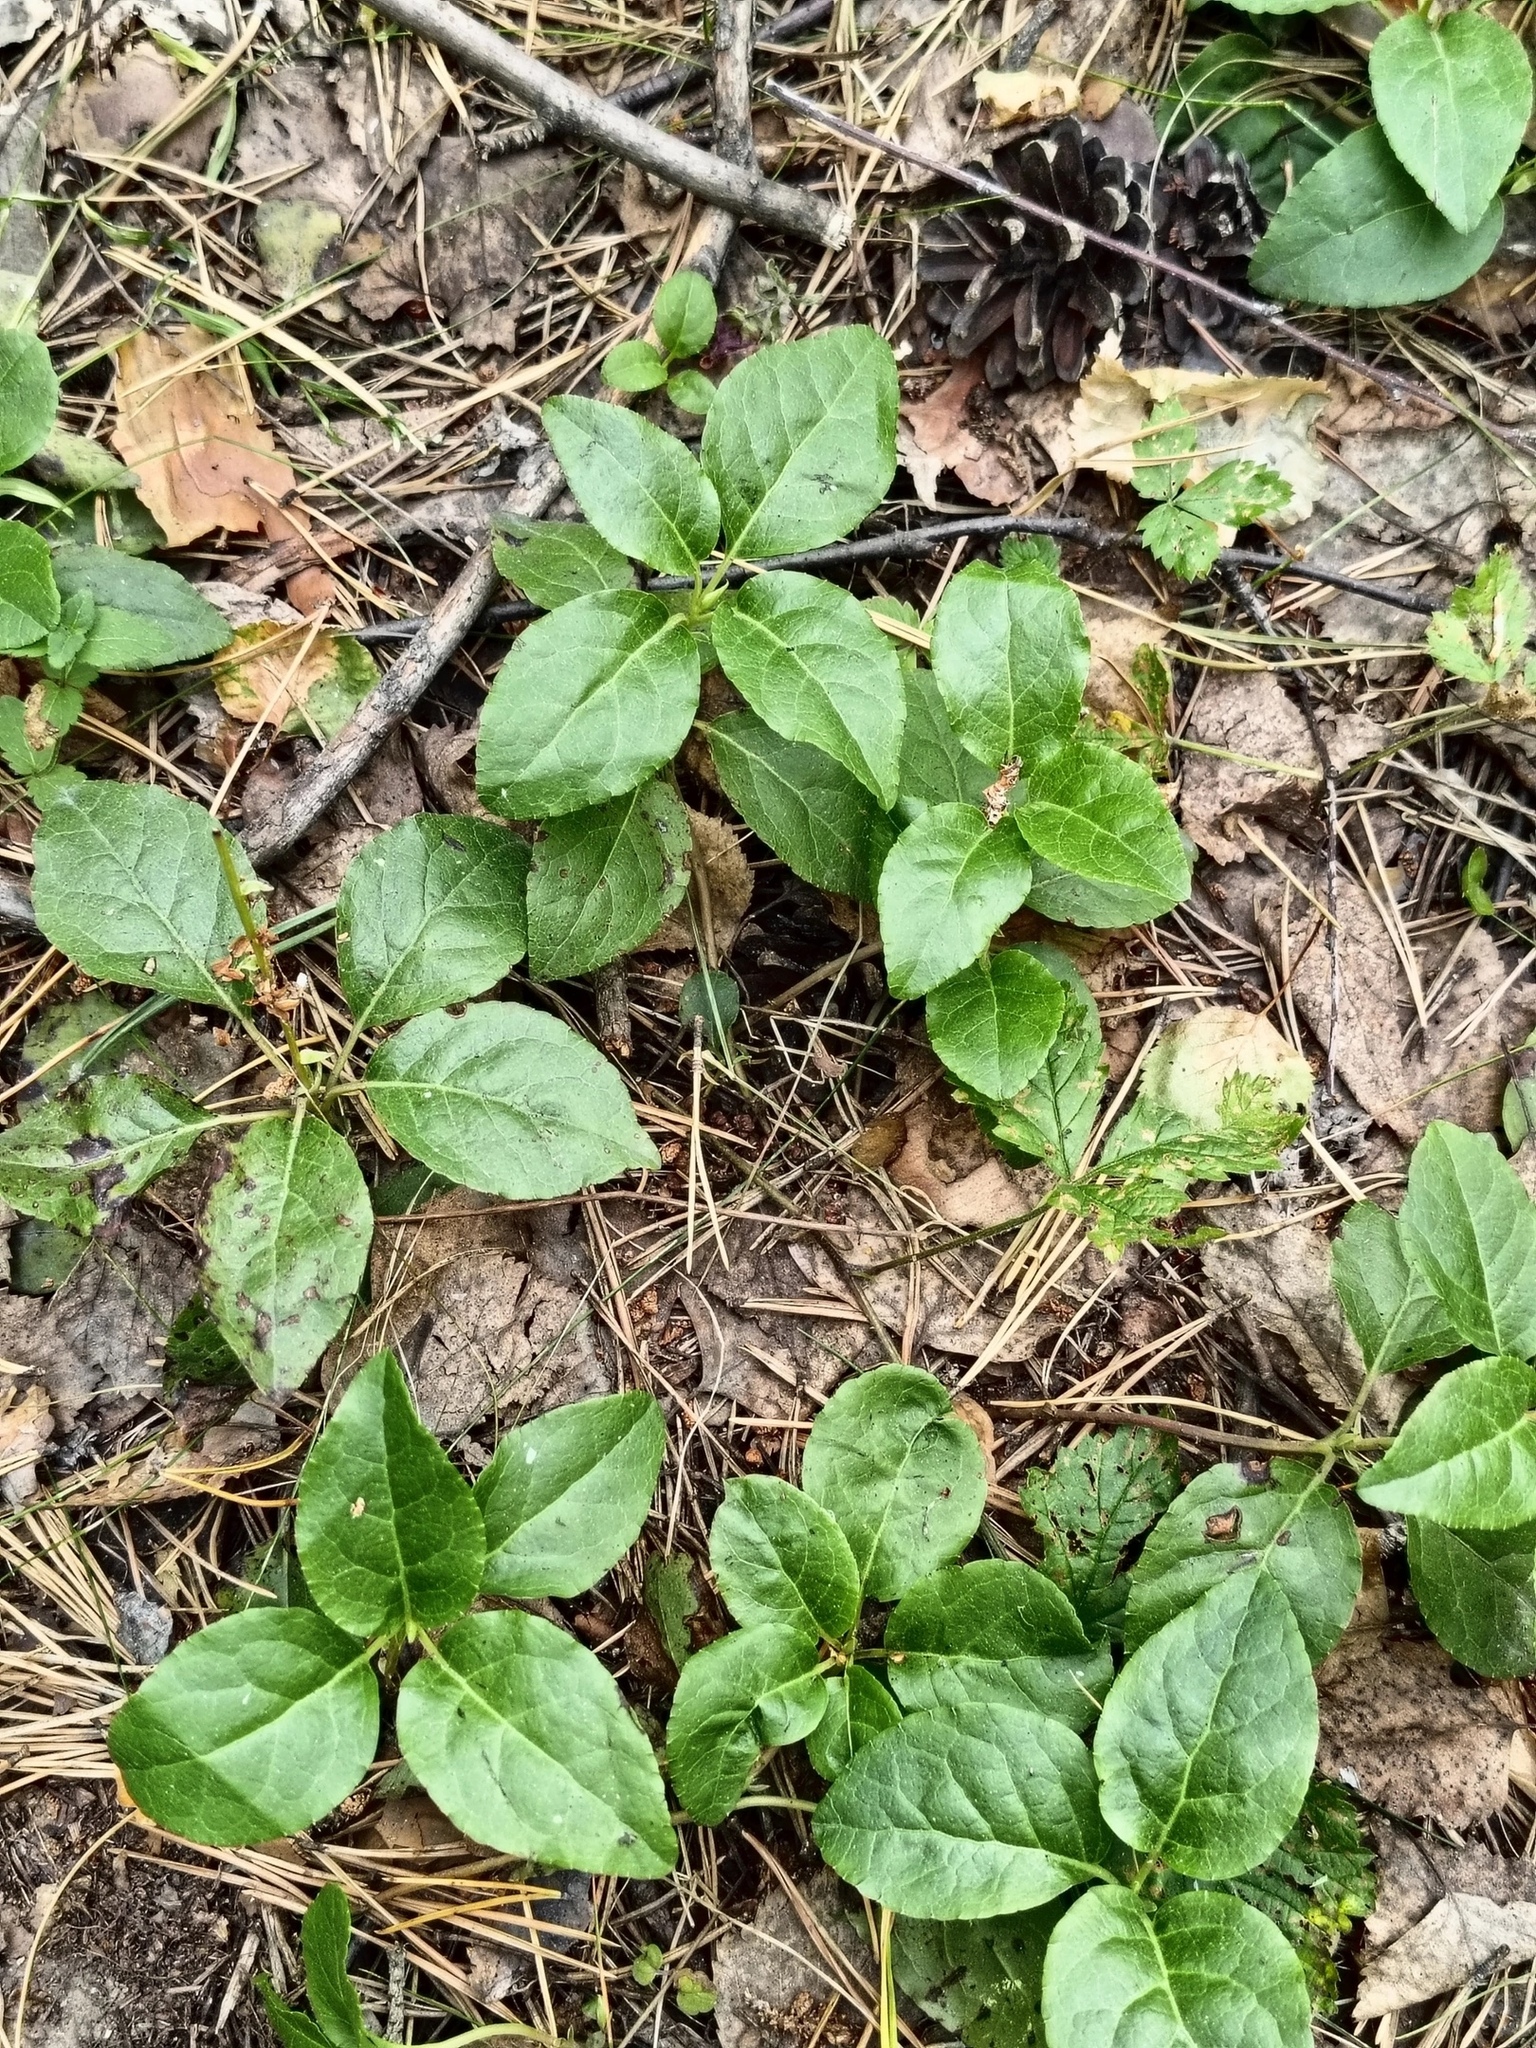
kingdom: Plantae
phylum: Tracheophyta
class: Magnoliopsida
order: Ericales
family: Ericaceae
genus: Orthilia
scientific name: Orthilia secunda
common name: One-sided orthilia
